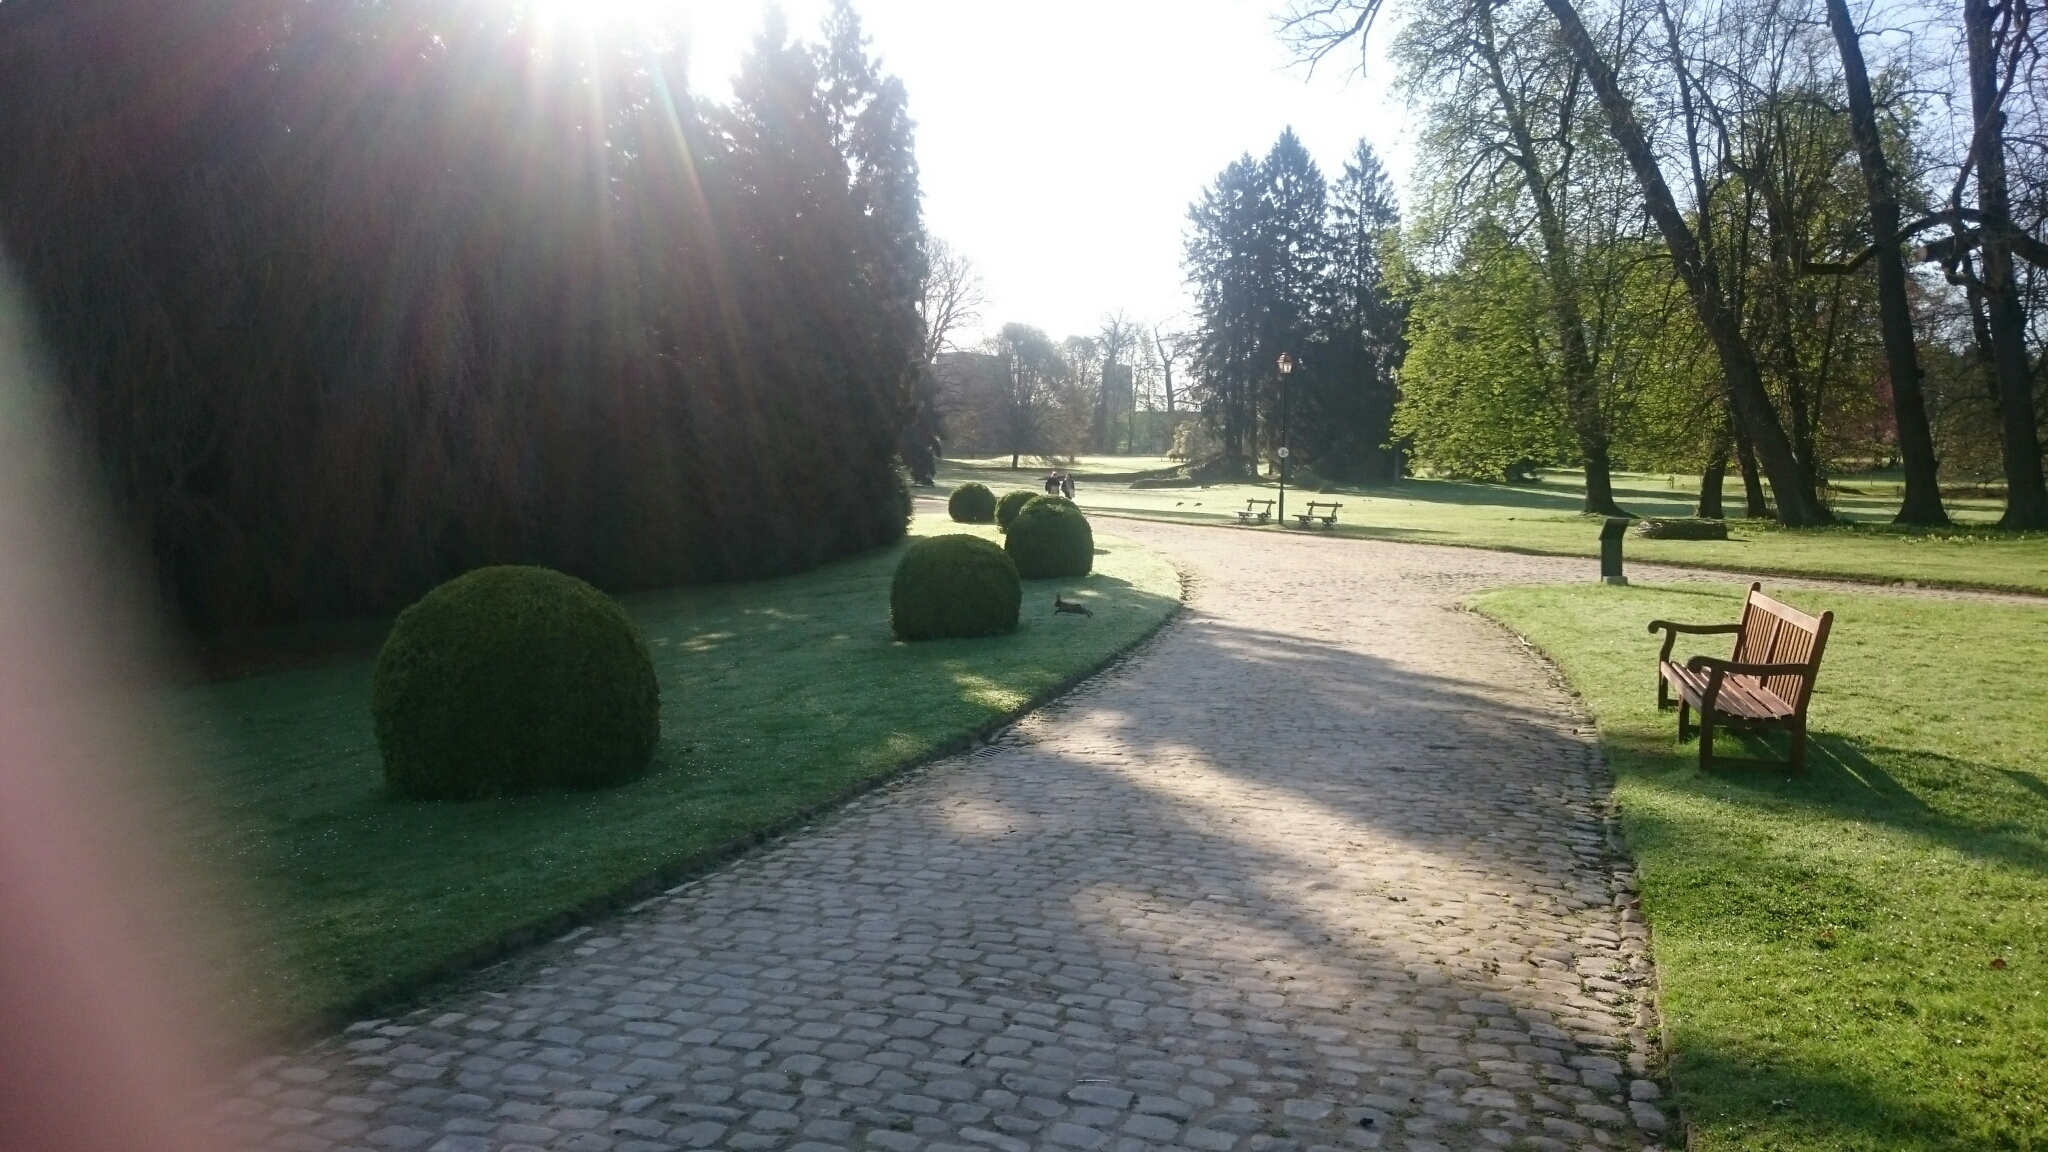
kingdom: Animalia
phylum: Chordata
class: Mammalia
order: Lagomorpha
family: Leporidae
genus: Oryctolagus
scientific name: Oryctolagus cuniculus
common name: European rabbit
